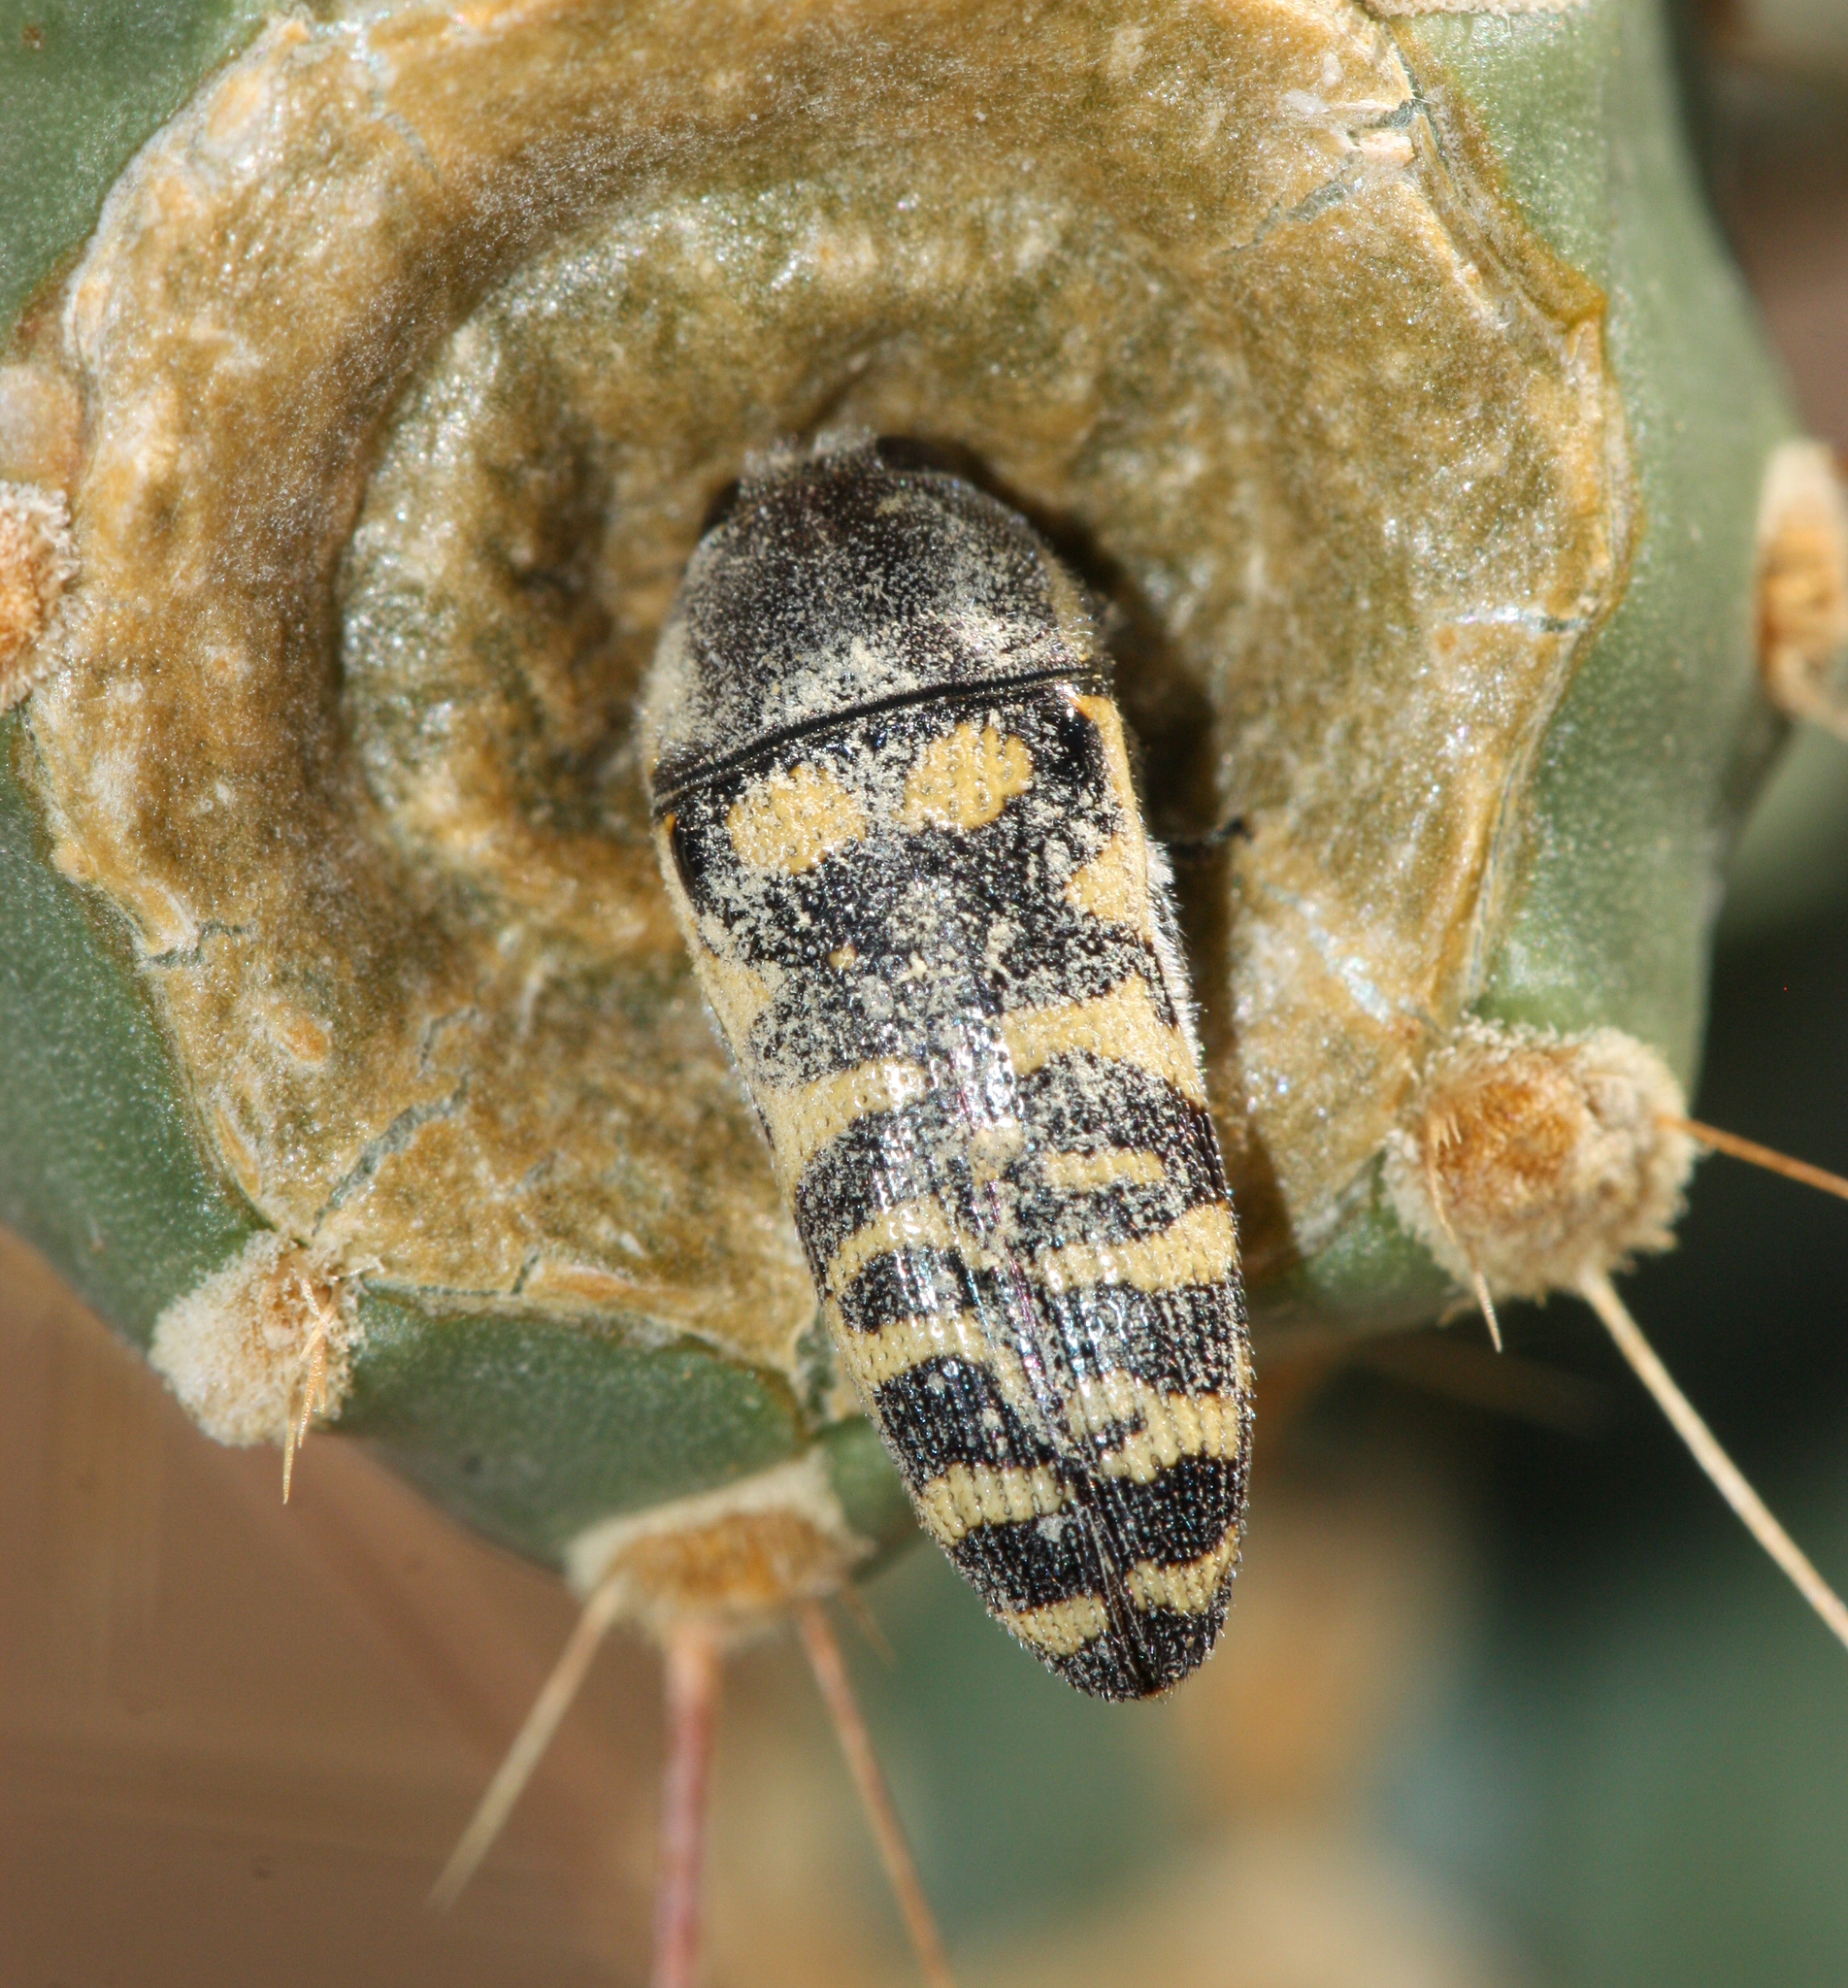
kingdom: Animalia
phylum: Arthropoda
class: Insecta
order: Coleoptera
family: Buprestidae
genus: Acmaeodera
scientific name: Acmaeodera alicia
